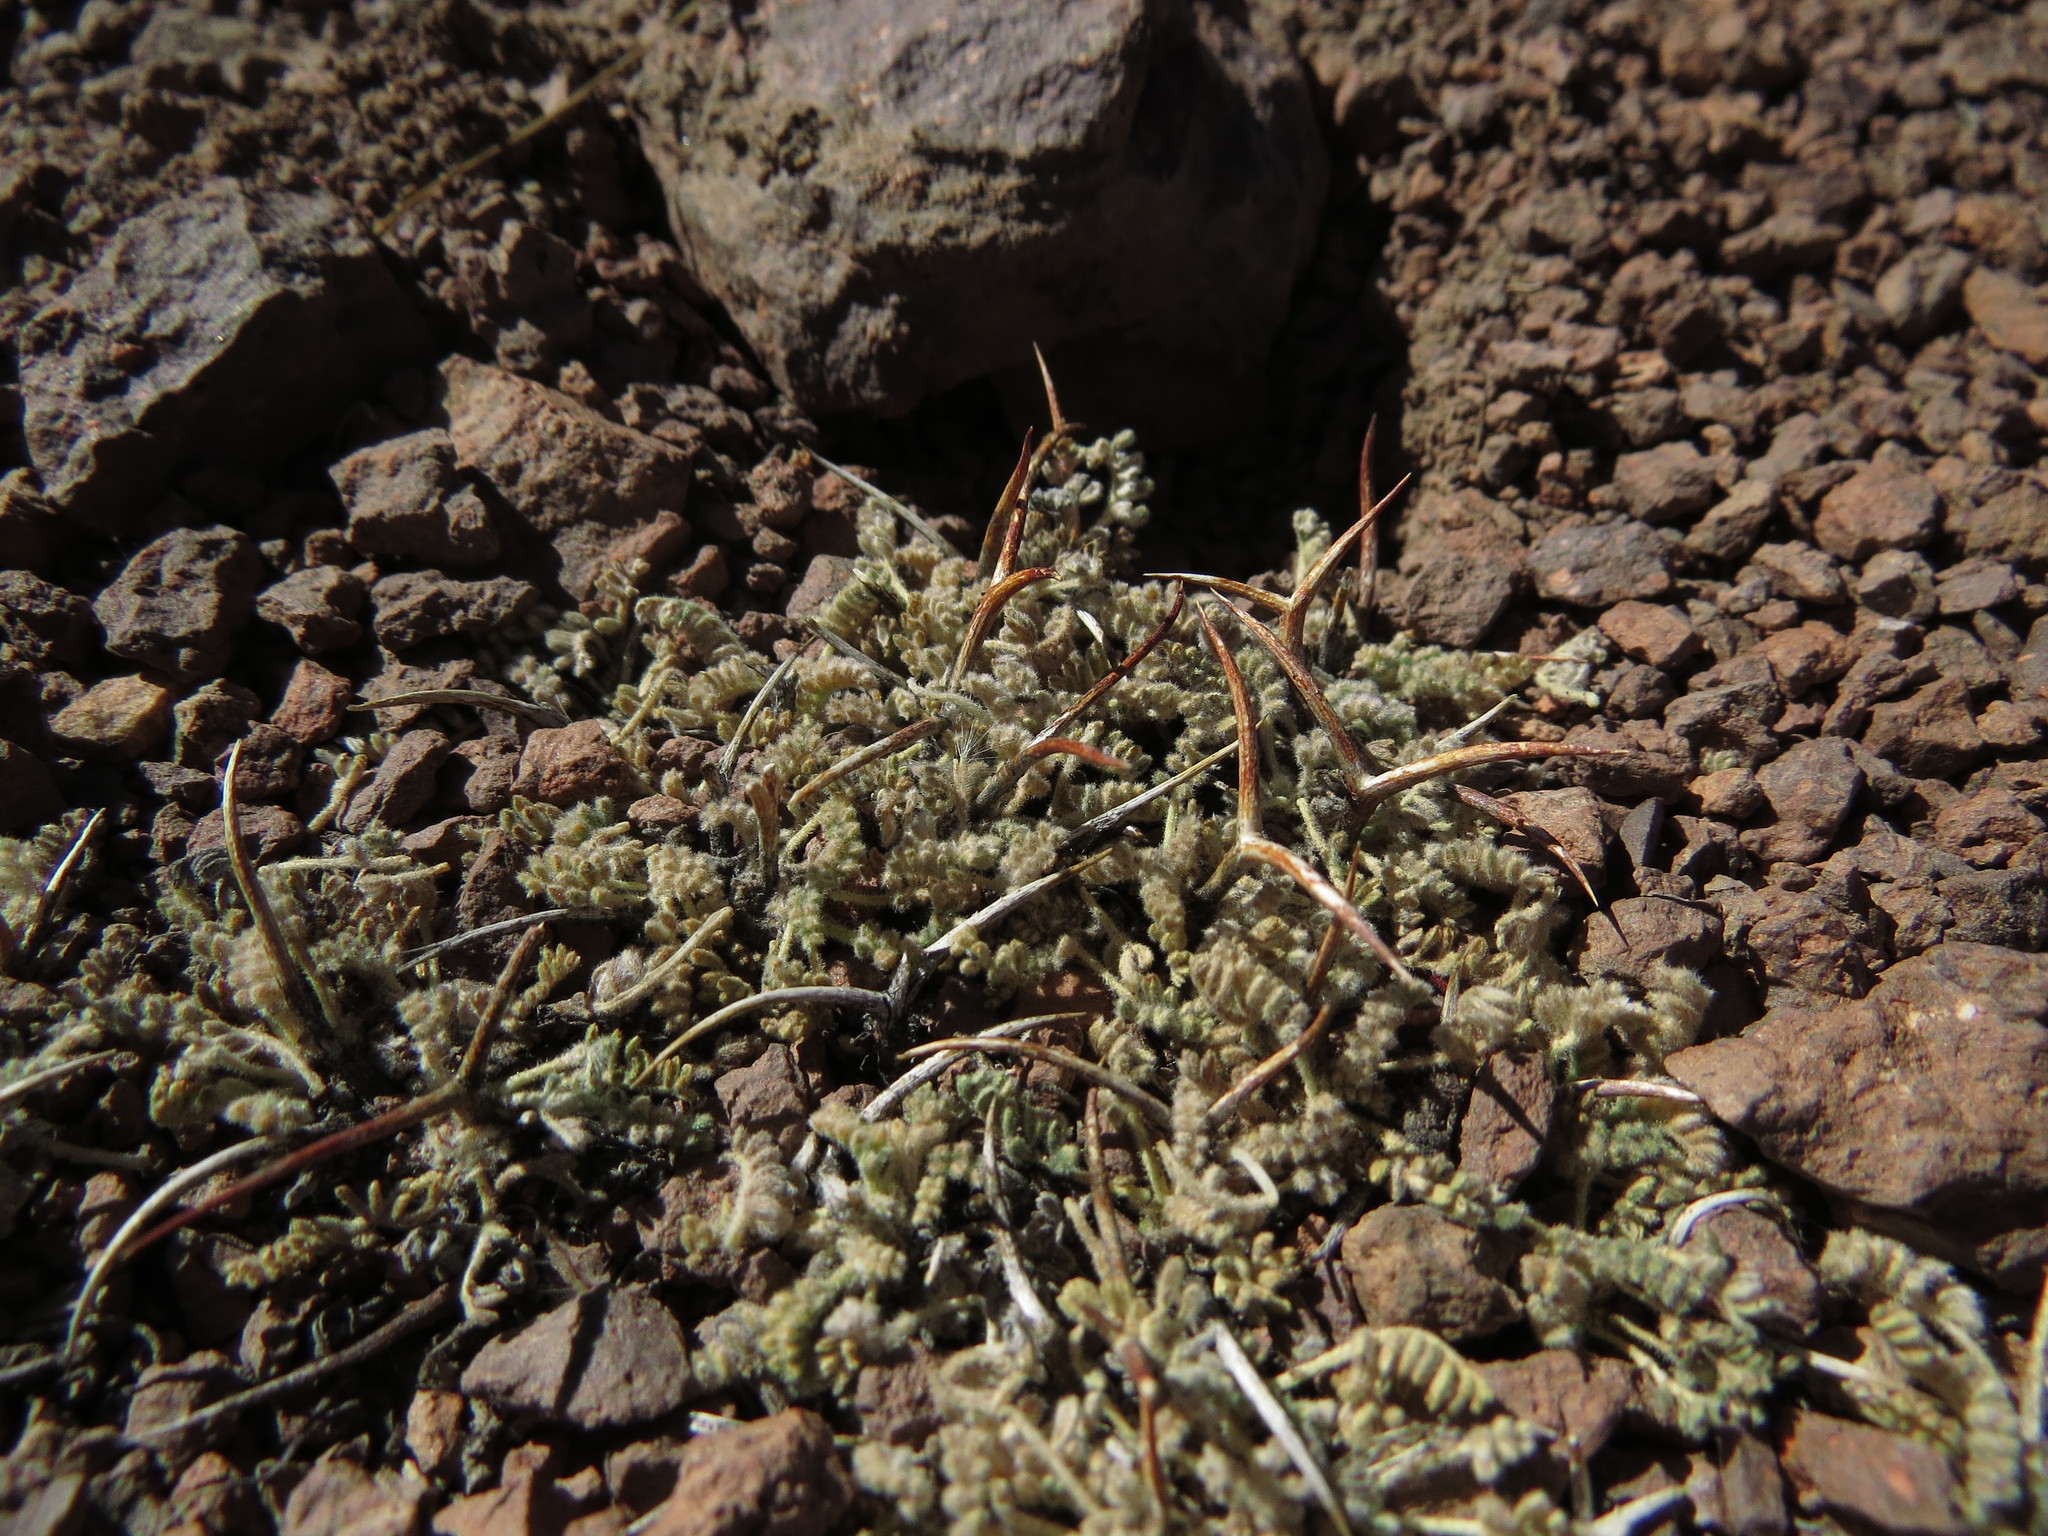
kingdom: Plantae
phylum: Tracheophyta
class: Magnoliopsida
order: Fabales
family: Fabaceae
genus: Adesmia
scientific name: Adesmia subterranea
